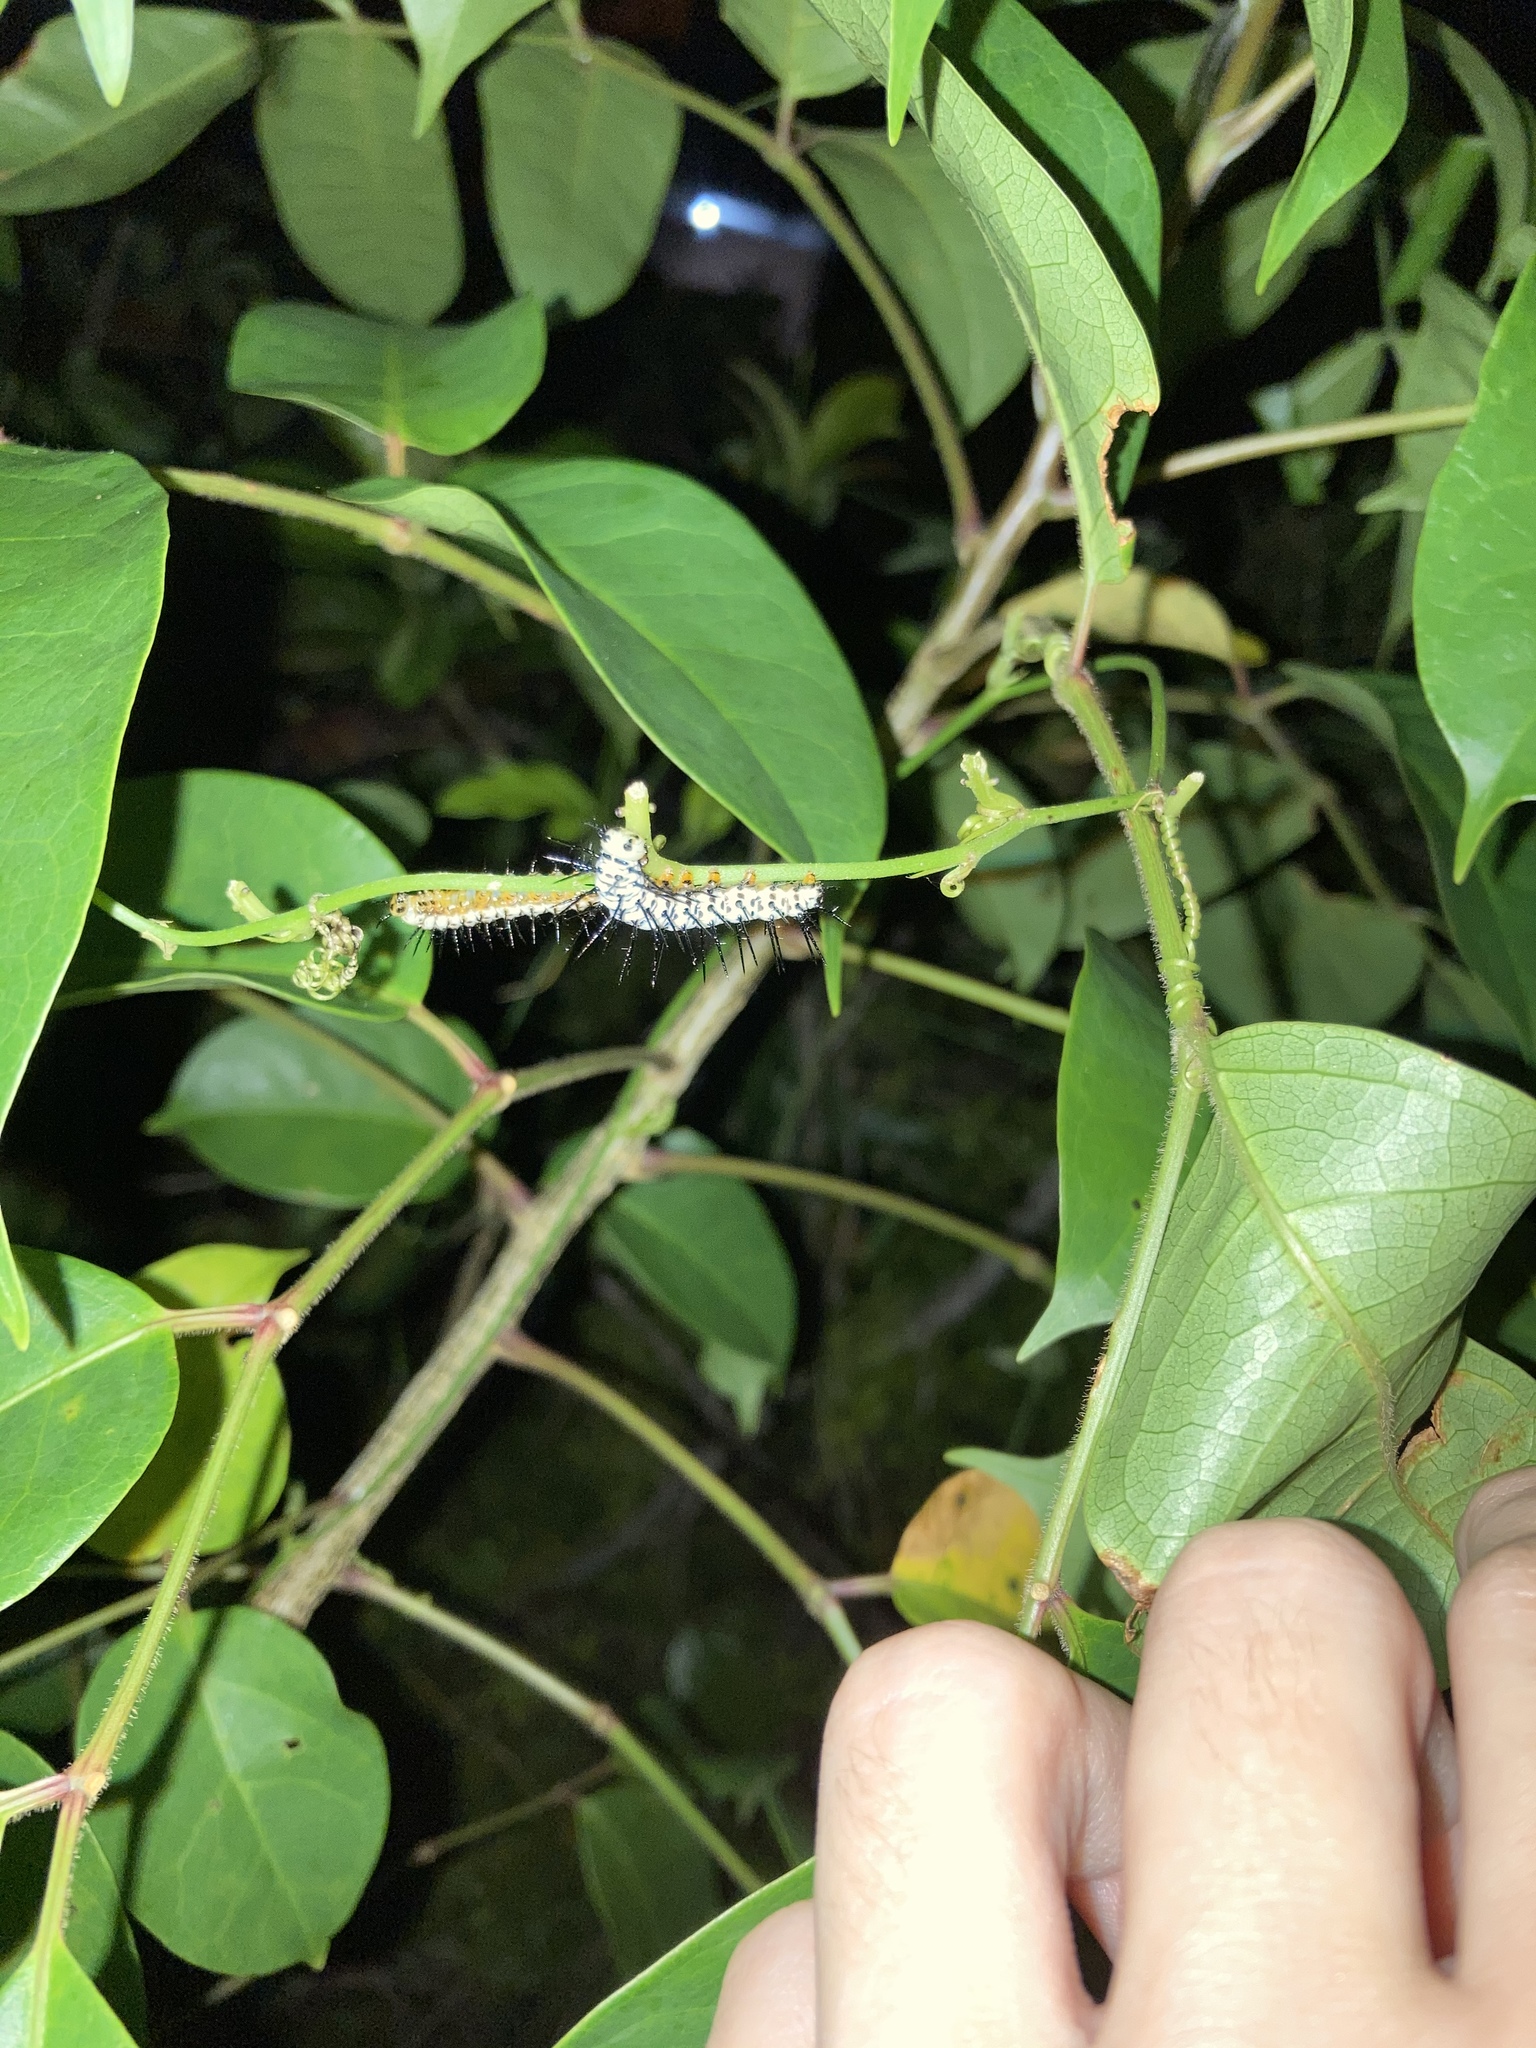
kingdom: Animalia
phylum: Arthropoda
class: Insecta
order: Lepidoptera
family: Nymphalidae
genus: Heliconius
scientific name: Heliconius charithonia
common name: Zebra long wing
